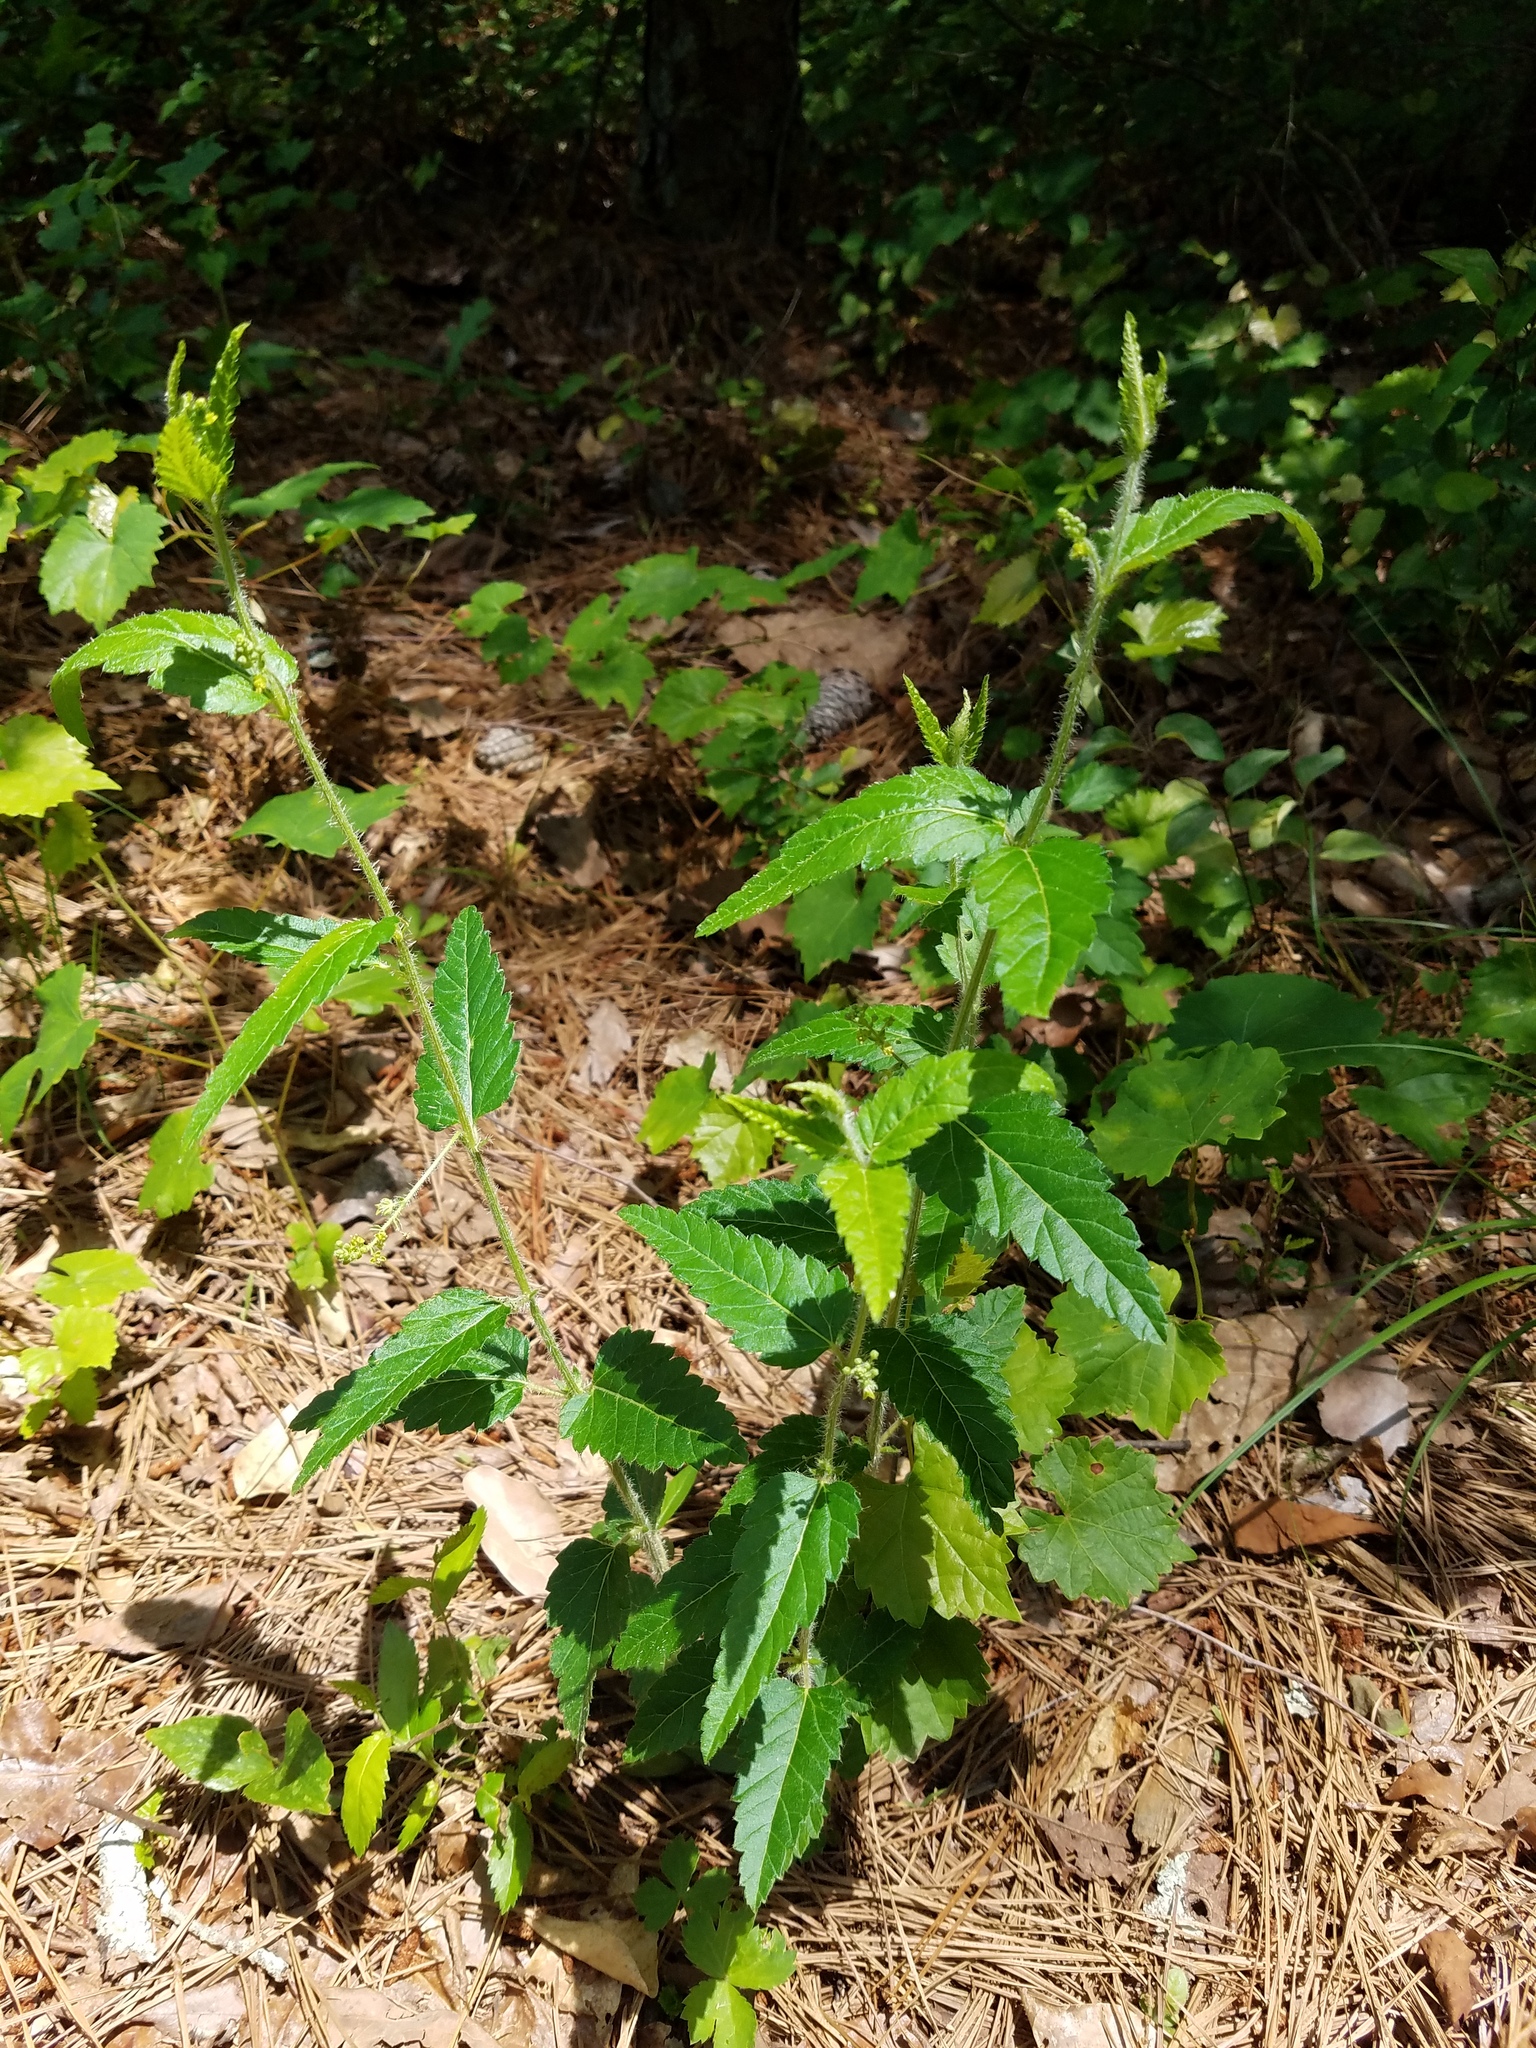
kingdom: Plantae
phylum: Tracheophyta
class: Magnoliopsida
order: Malpighiales
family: Euphorbiaceae
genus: Tragia
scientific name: Tragia urticifolia
